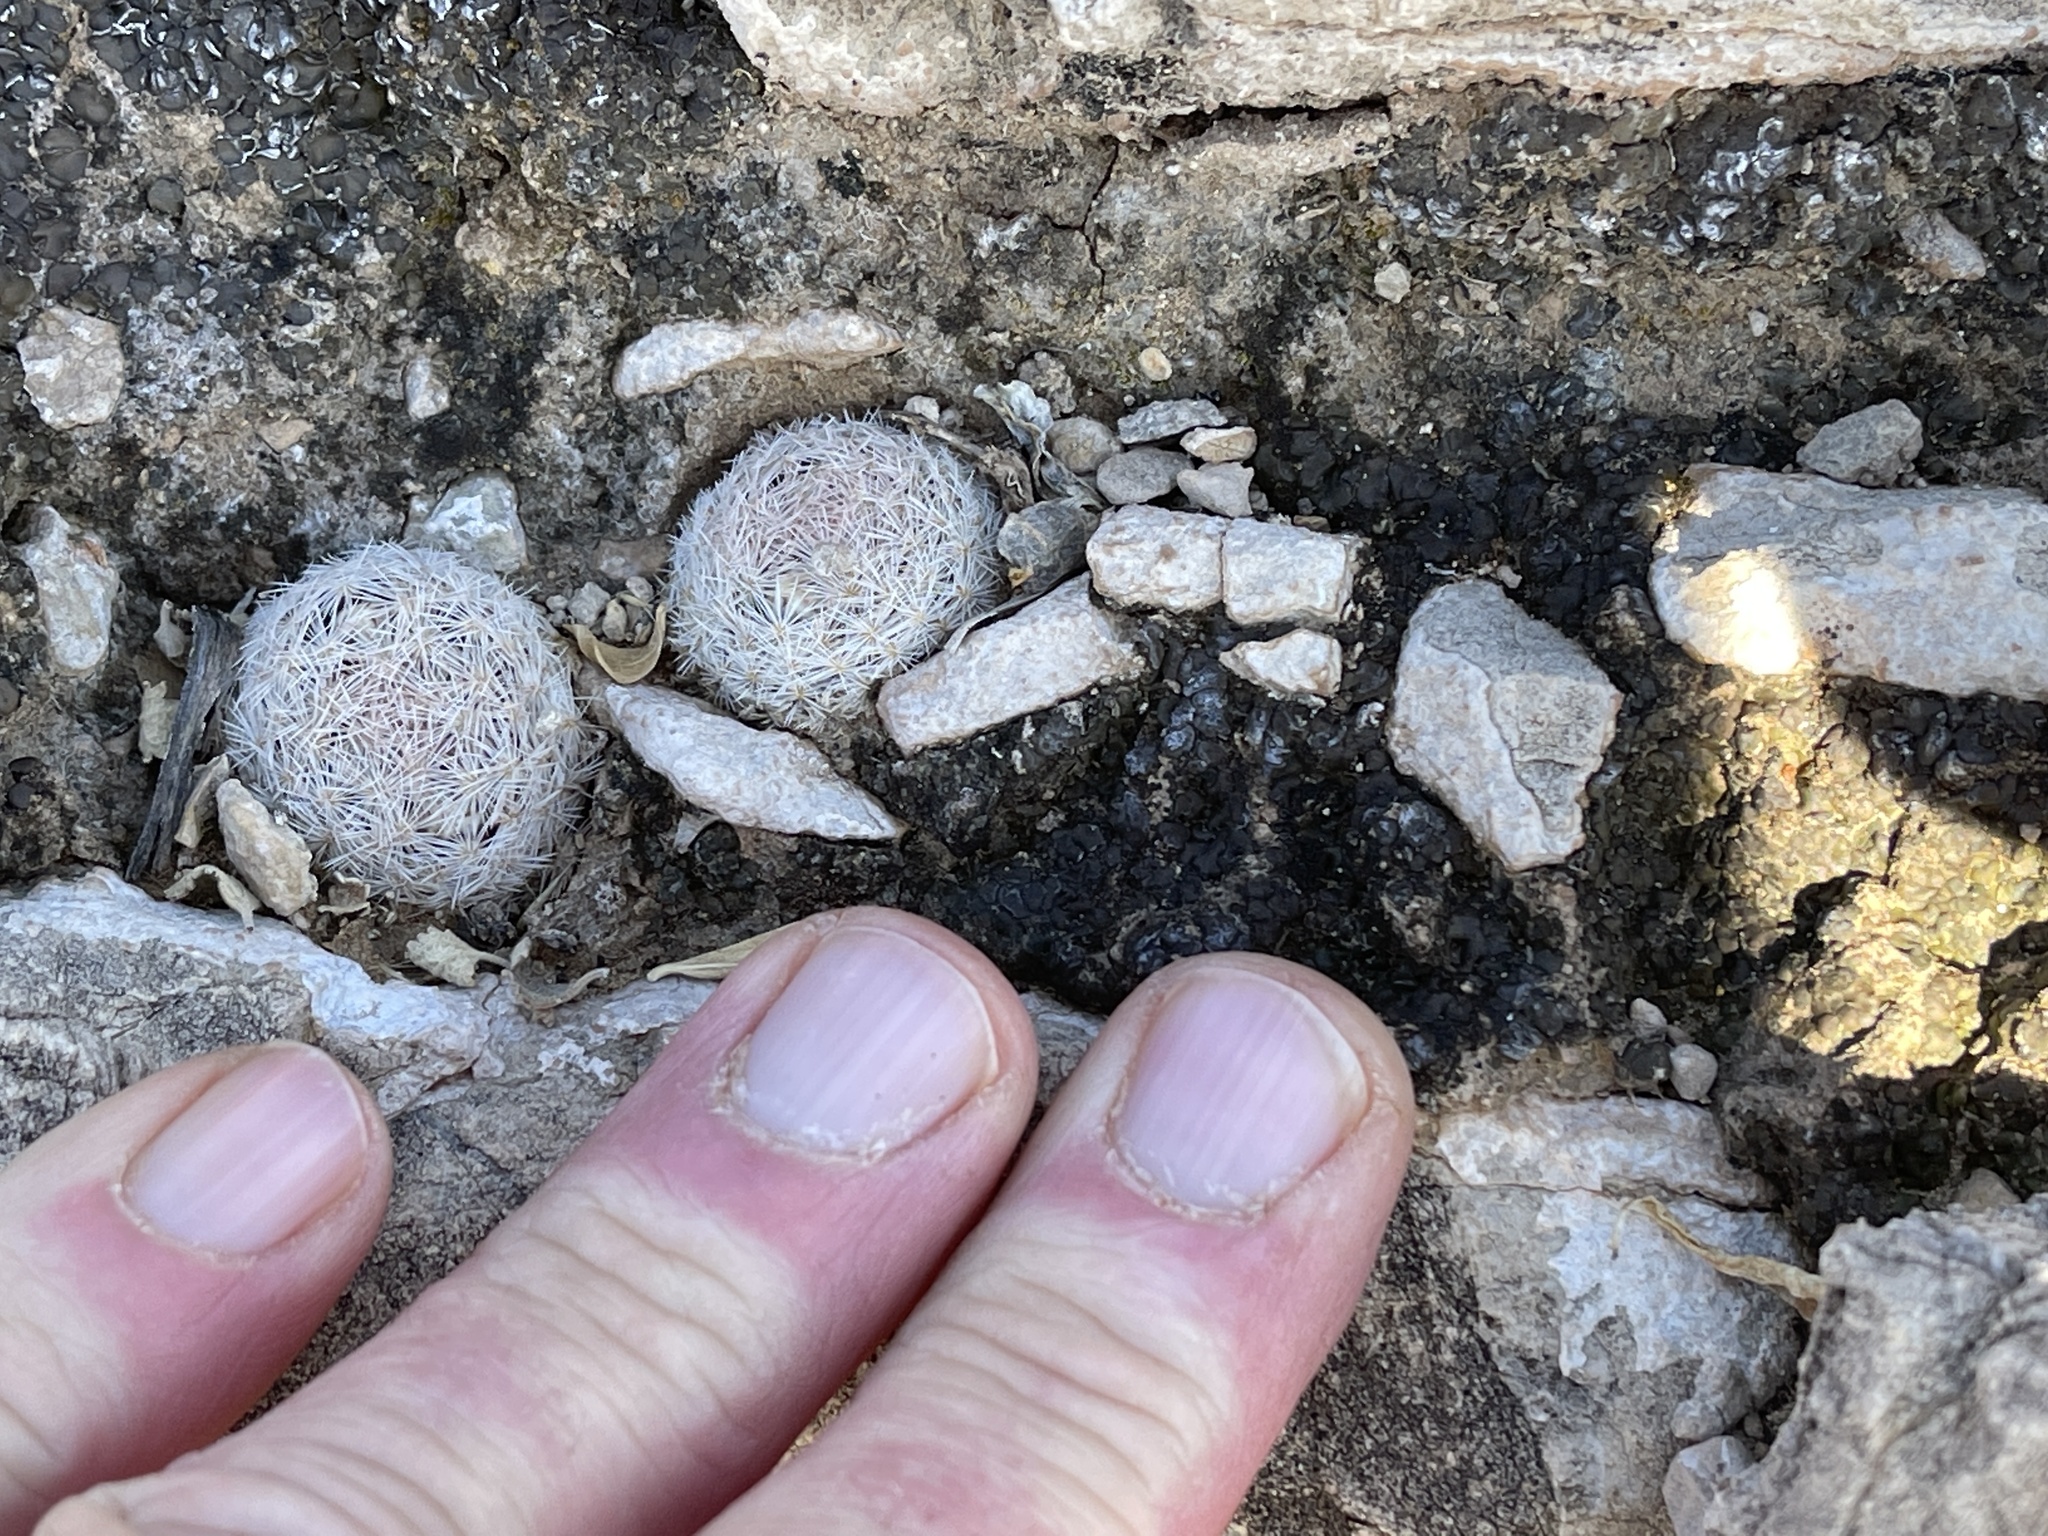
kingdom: Plantae
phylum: Tracheophyta
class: Magnoliopsida
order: Caryophyllales
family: Cactaceae
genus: Mammillaria
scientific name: Mammillaria lasiacantha
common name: Lace-spine nipple cactus
